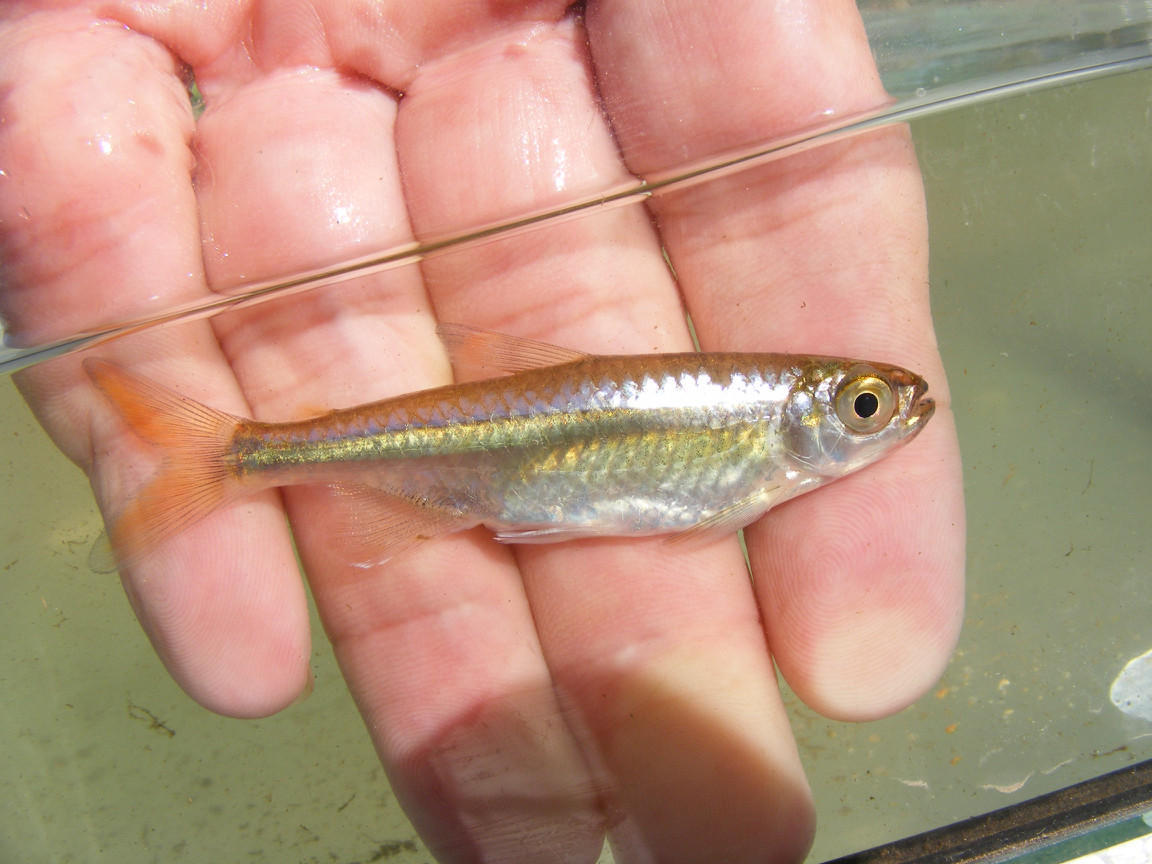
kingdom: Animalia
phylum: Chordata
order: Characiformes
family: Alestidae
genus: Micralestes
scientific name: Micralestes acutidens
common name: Silver robber
